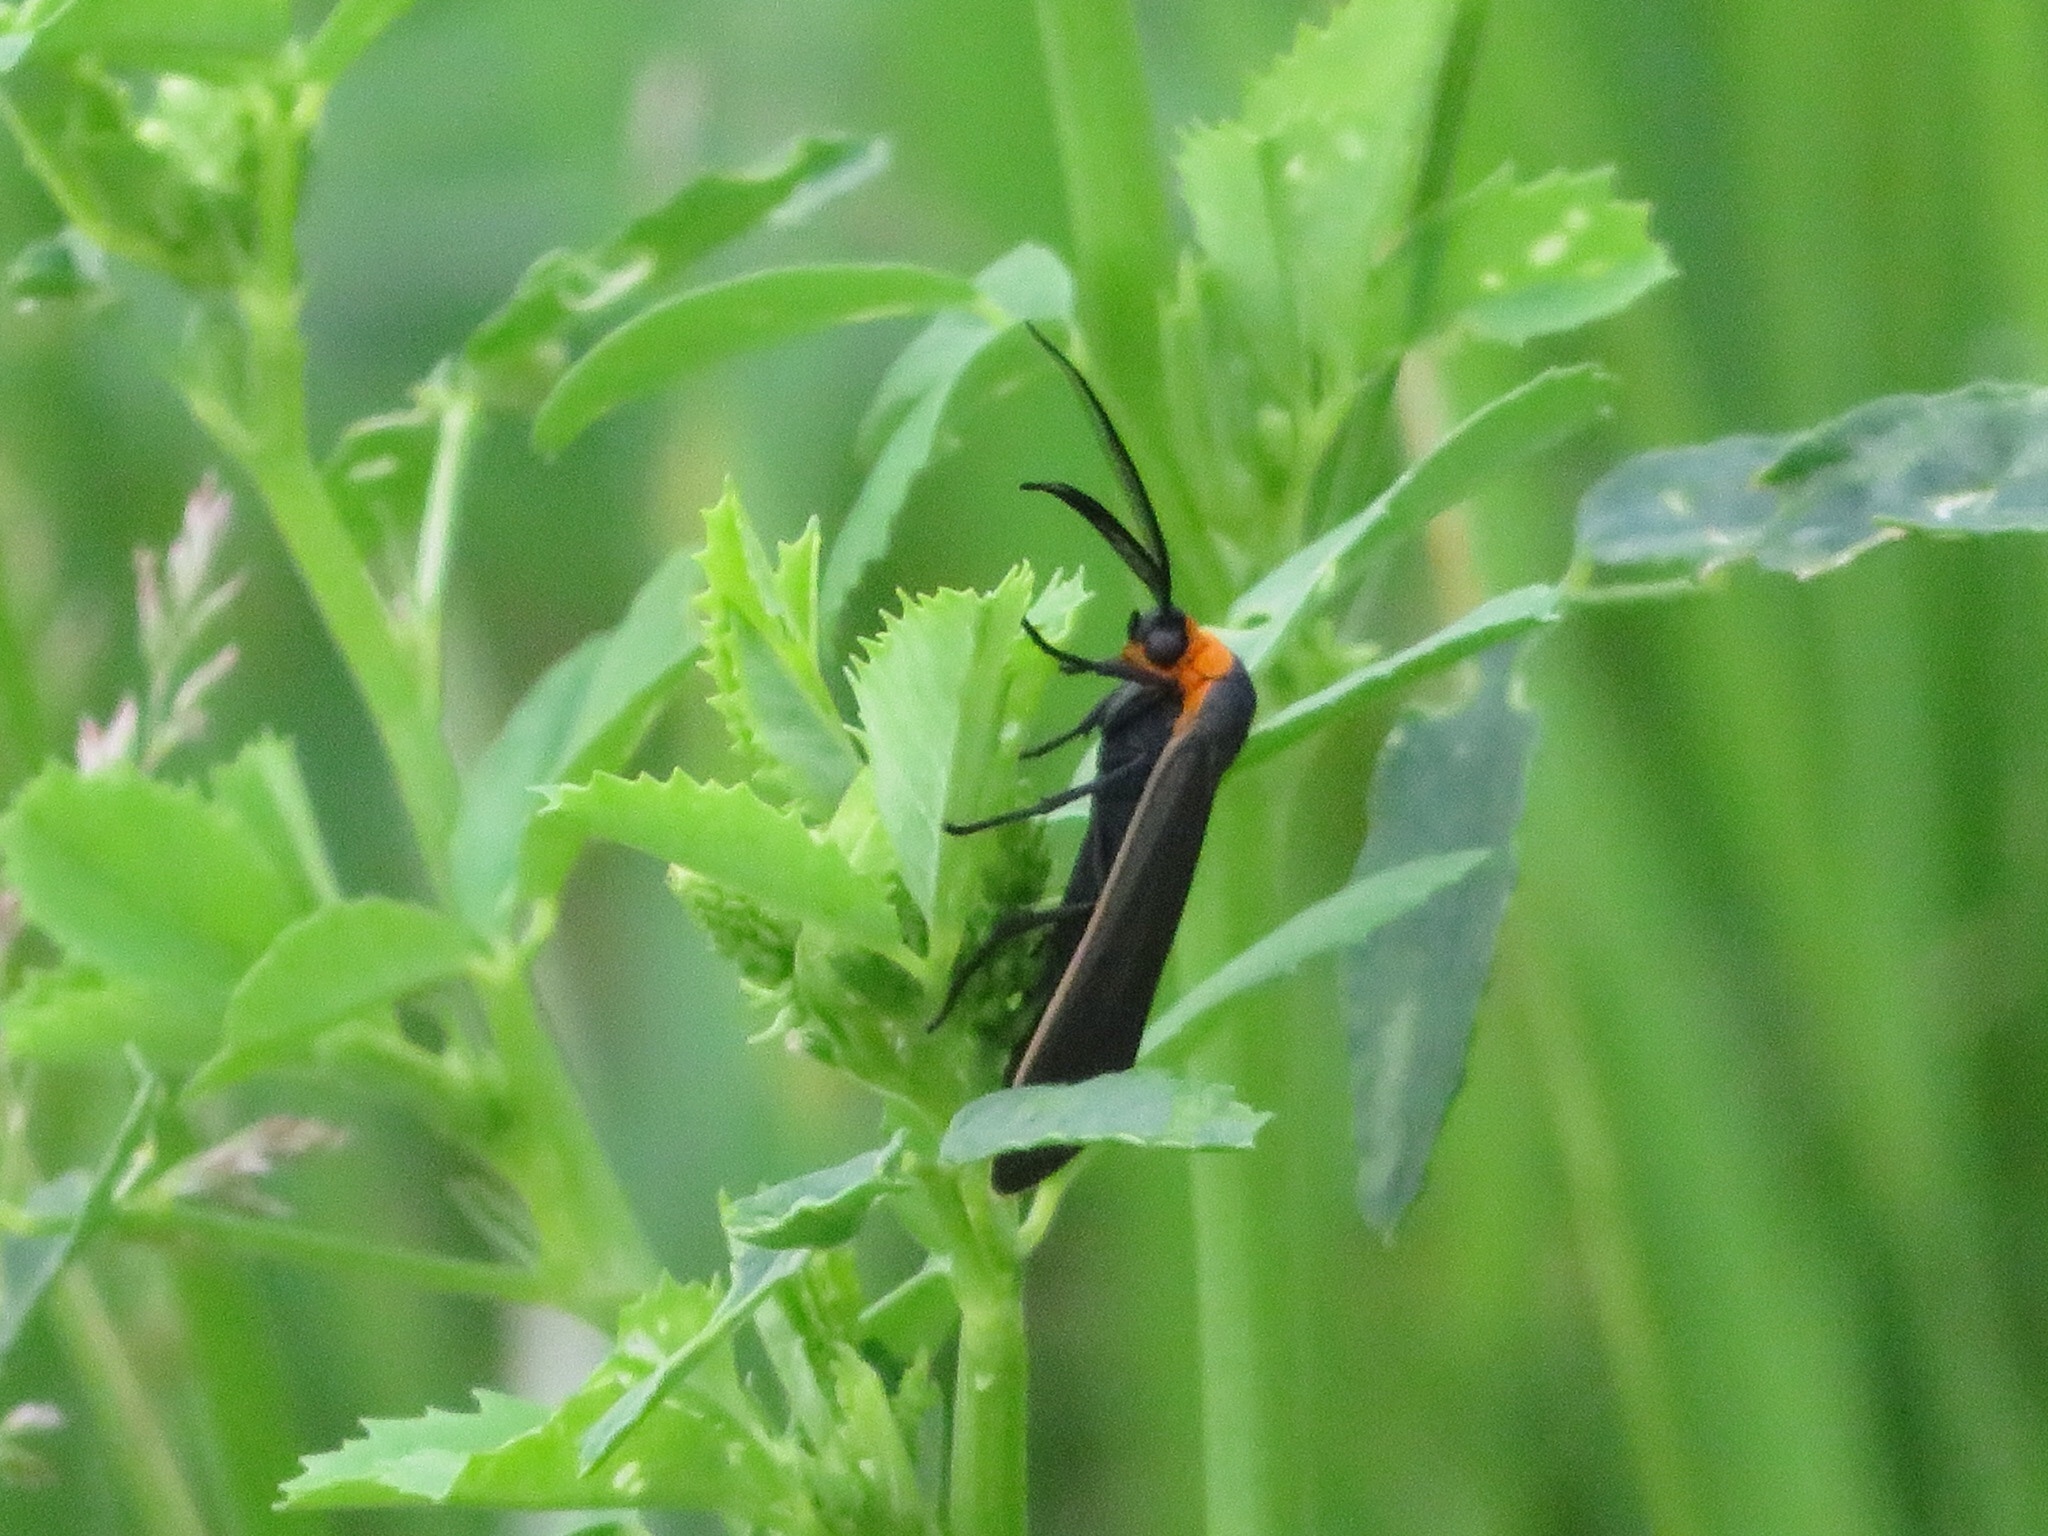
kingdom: Animalia
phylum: Arthropoda
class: Insecta
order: Lepidoptera
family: Erebidae
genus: Cisseps
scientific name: Cisseps fulvicollis
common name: Yellow-collared scape moth
